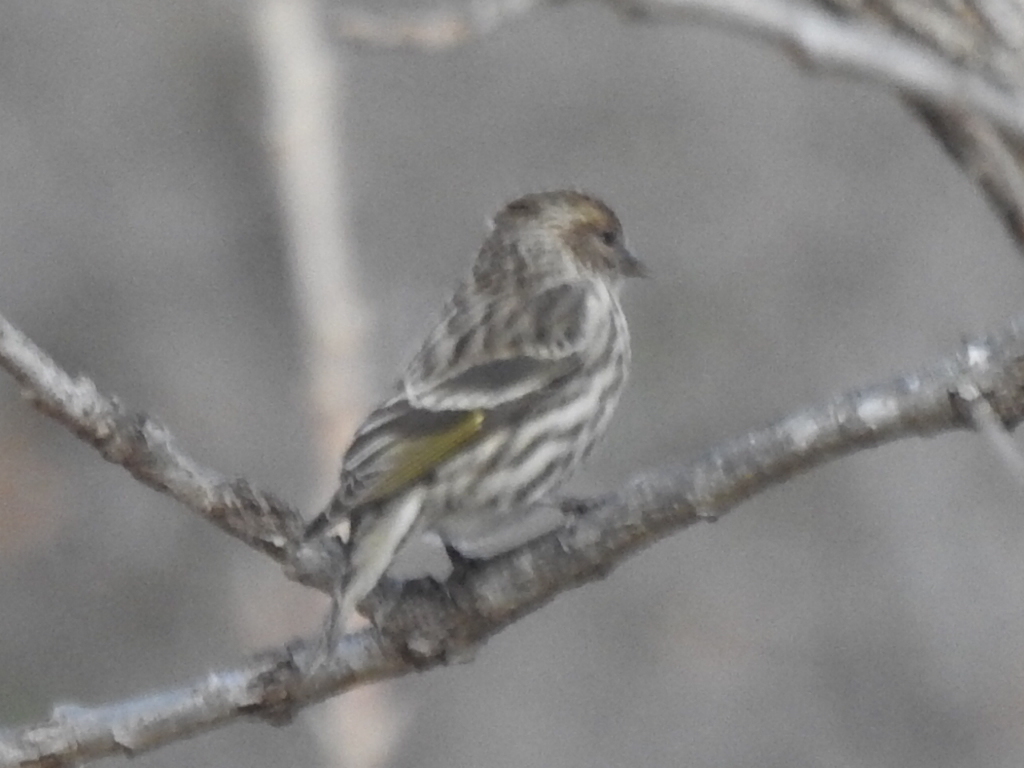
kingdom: Animalia
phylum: Chordata
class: Aves
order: Passeriformes
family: Fringillidae
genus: Spinus
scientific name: Spinus pinus
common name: Pine siskin
